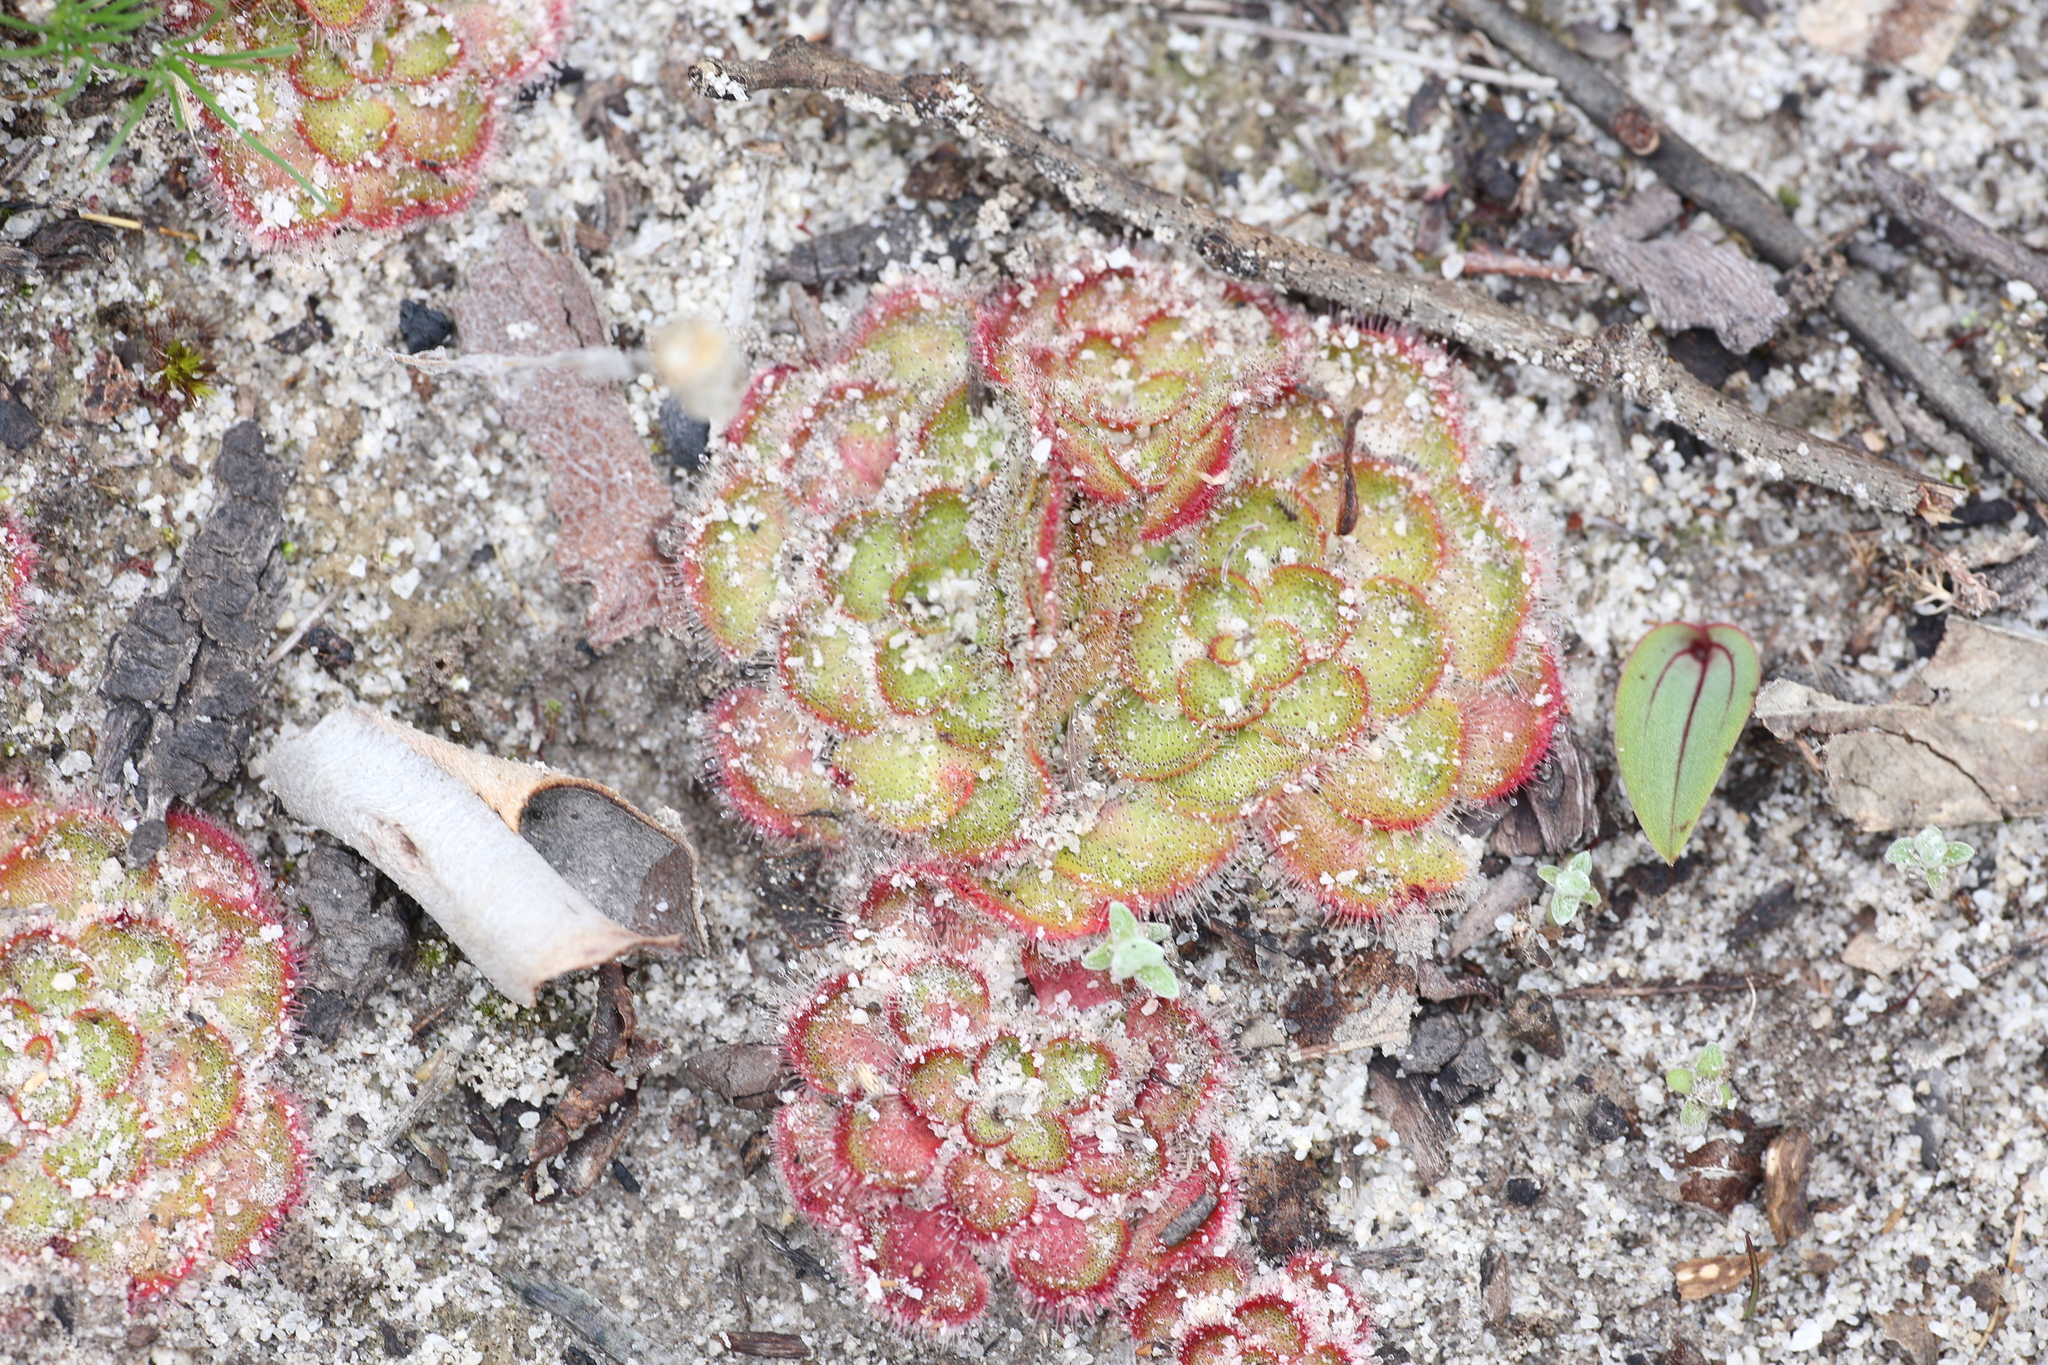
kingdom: Plantae
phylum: Tracheophyta
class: Magnoliopsida
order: Caryophyllales
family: Droseraceae
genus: Drosera
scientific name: Drosera zonaria
